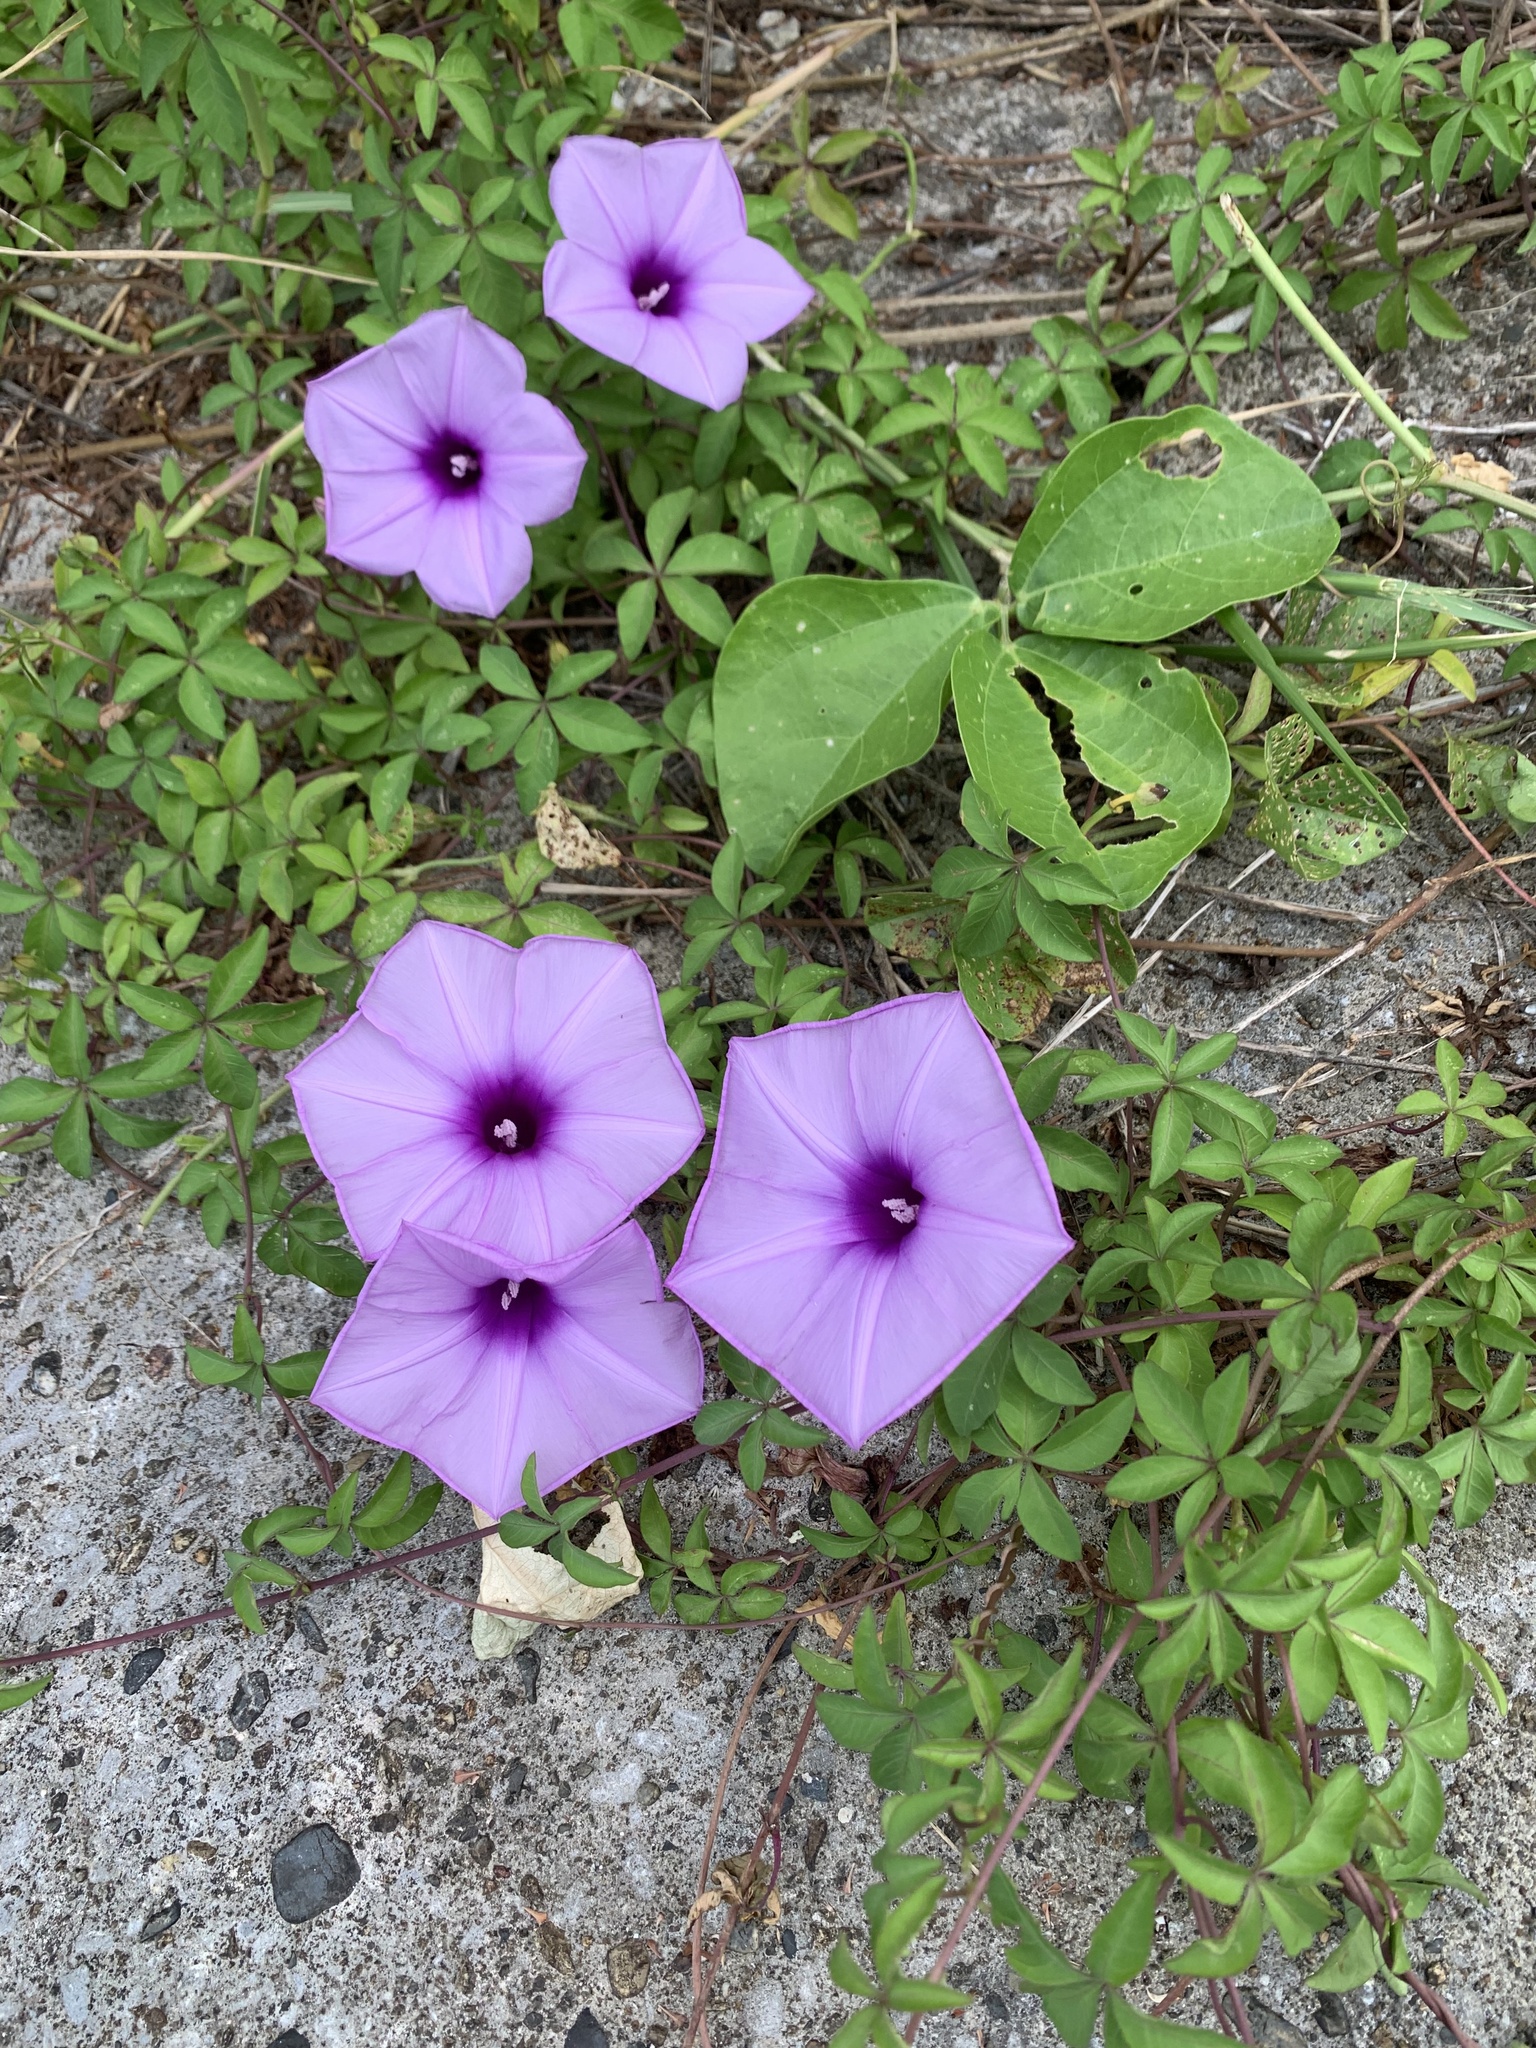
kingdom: Plantae
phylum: Tracheophyta
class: Magnoliopsida
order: Solanales
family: Convolvulaceae
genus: Ipomoea
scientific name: Ipomoea cairica
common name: Mile a minute vine
